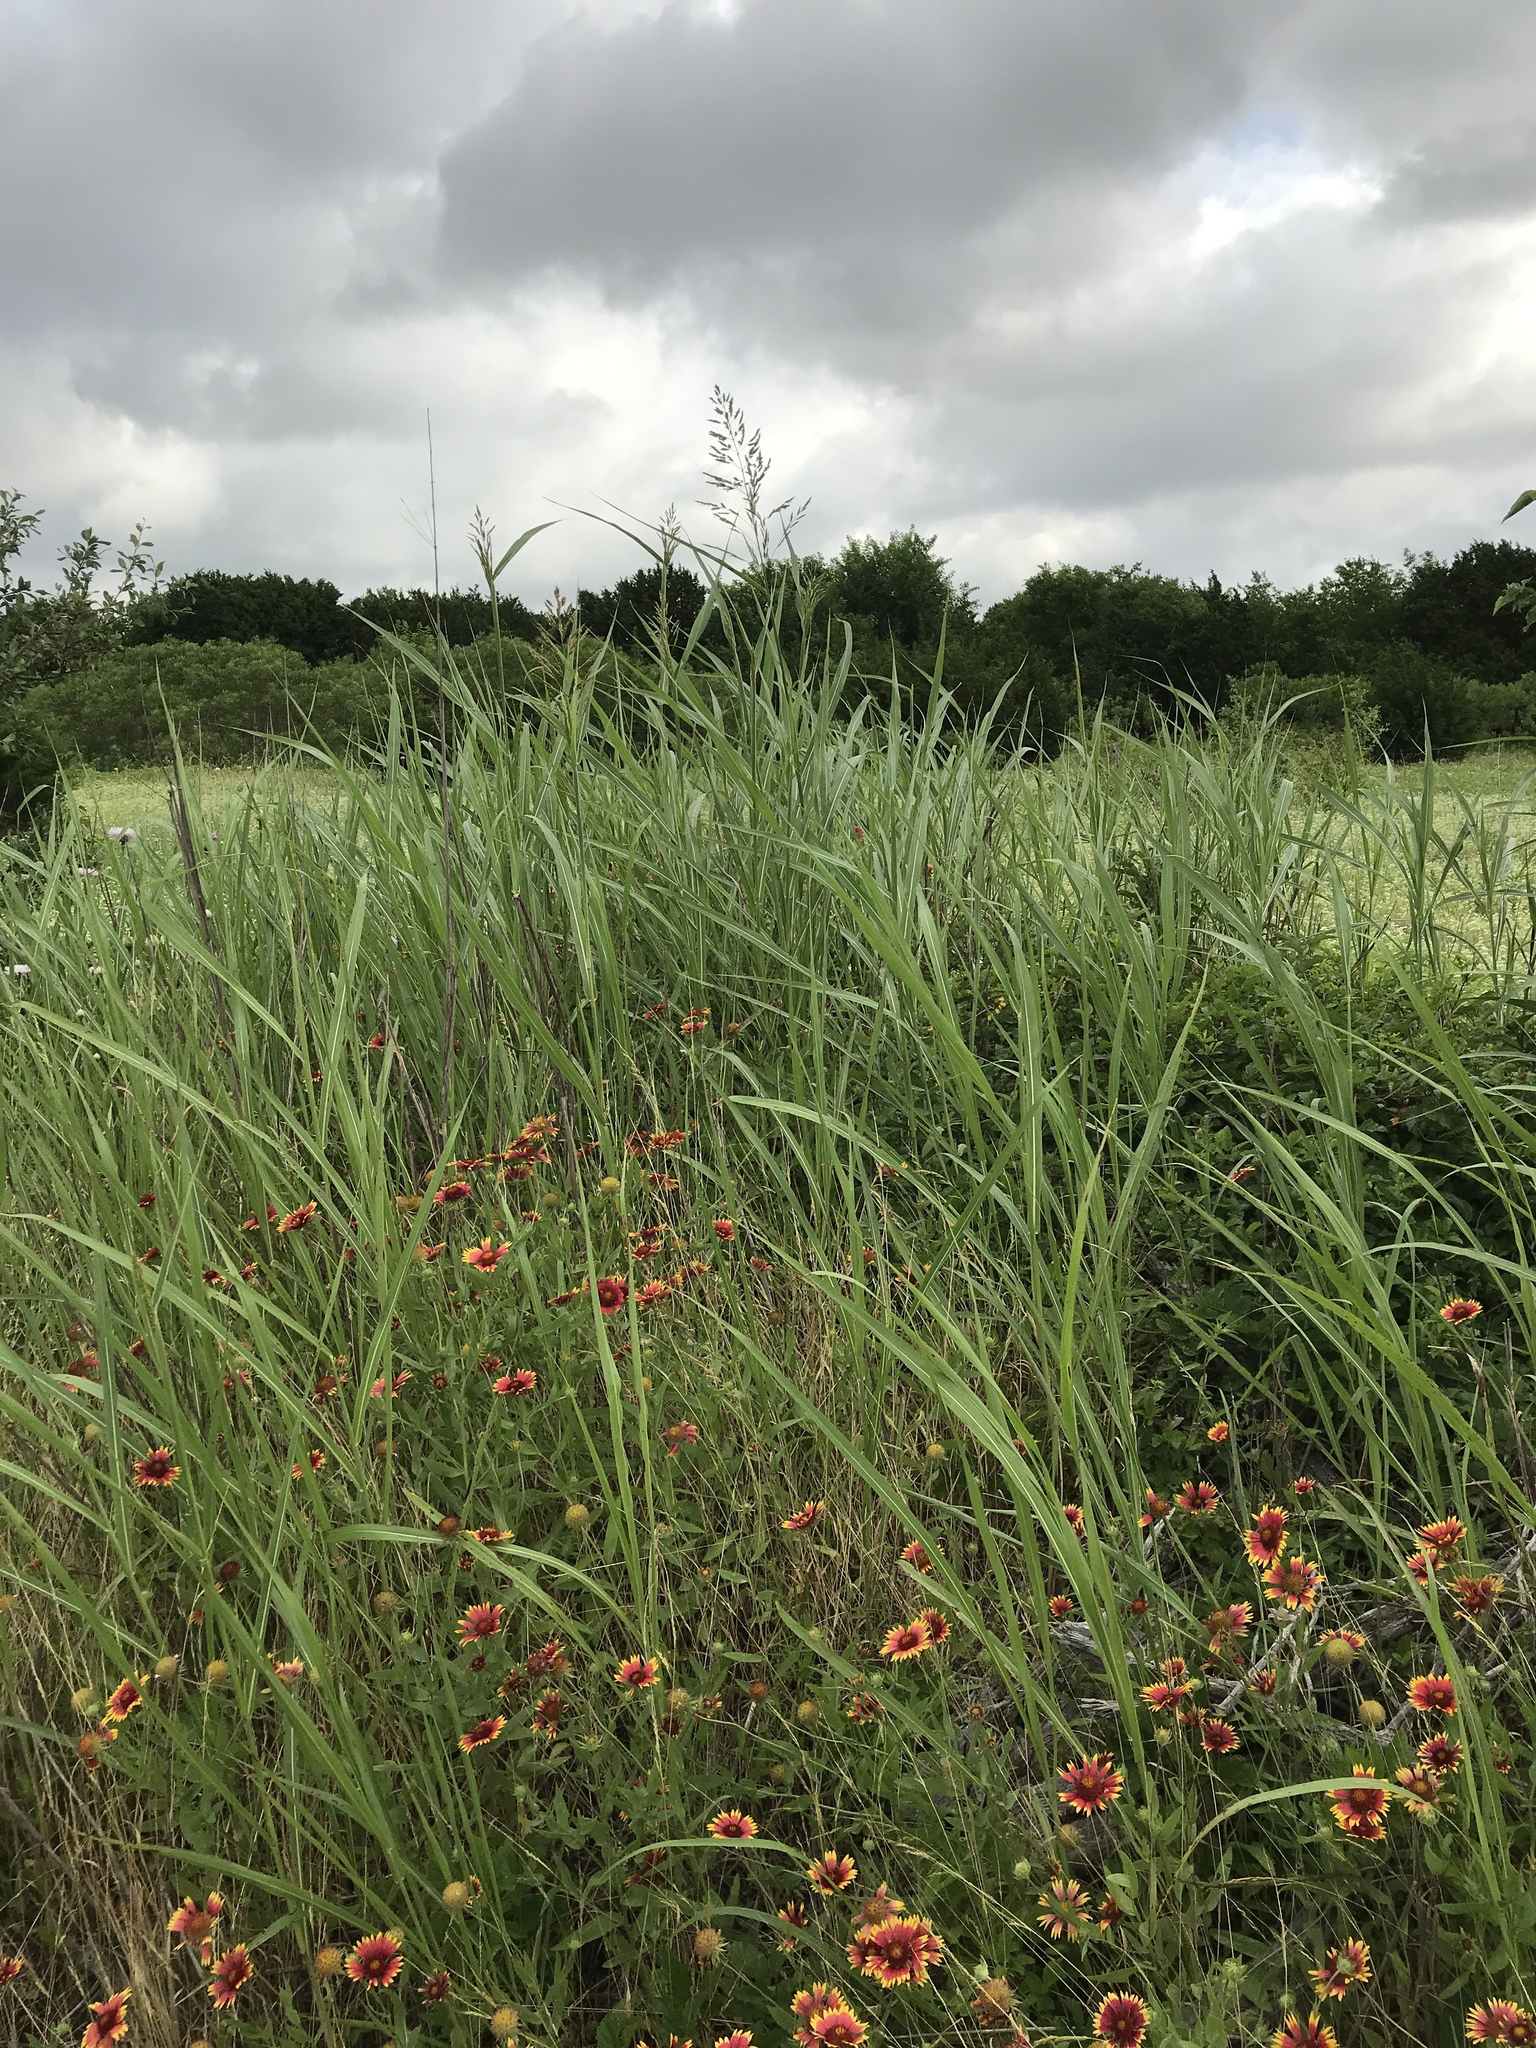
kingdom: Plantae
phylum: Tracheophyta
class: Liliopsida
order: Poales
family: Poaceae
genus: Sorghum
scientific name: Sorghum halepense
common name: Johnson-grass
